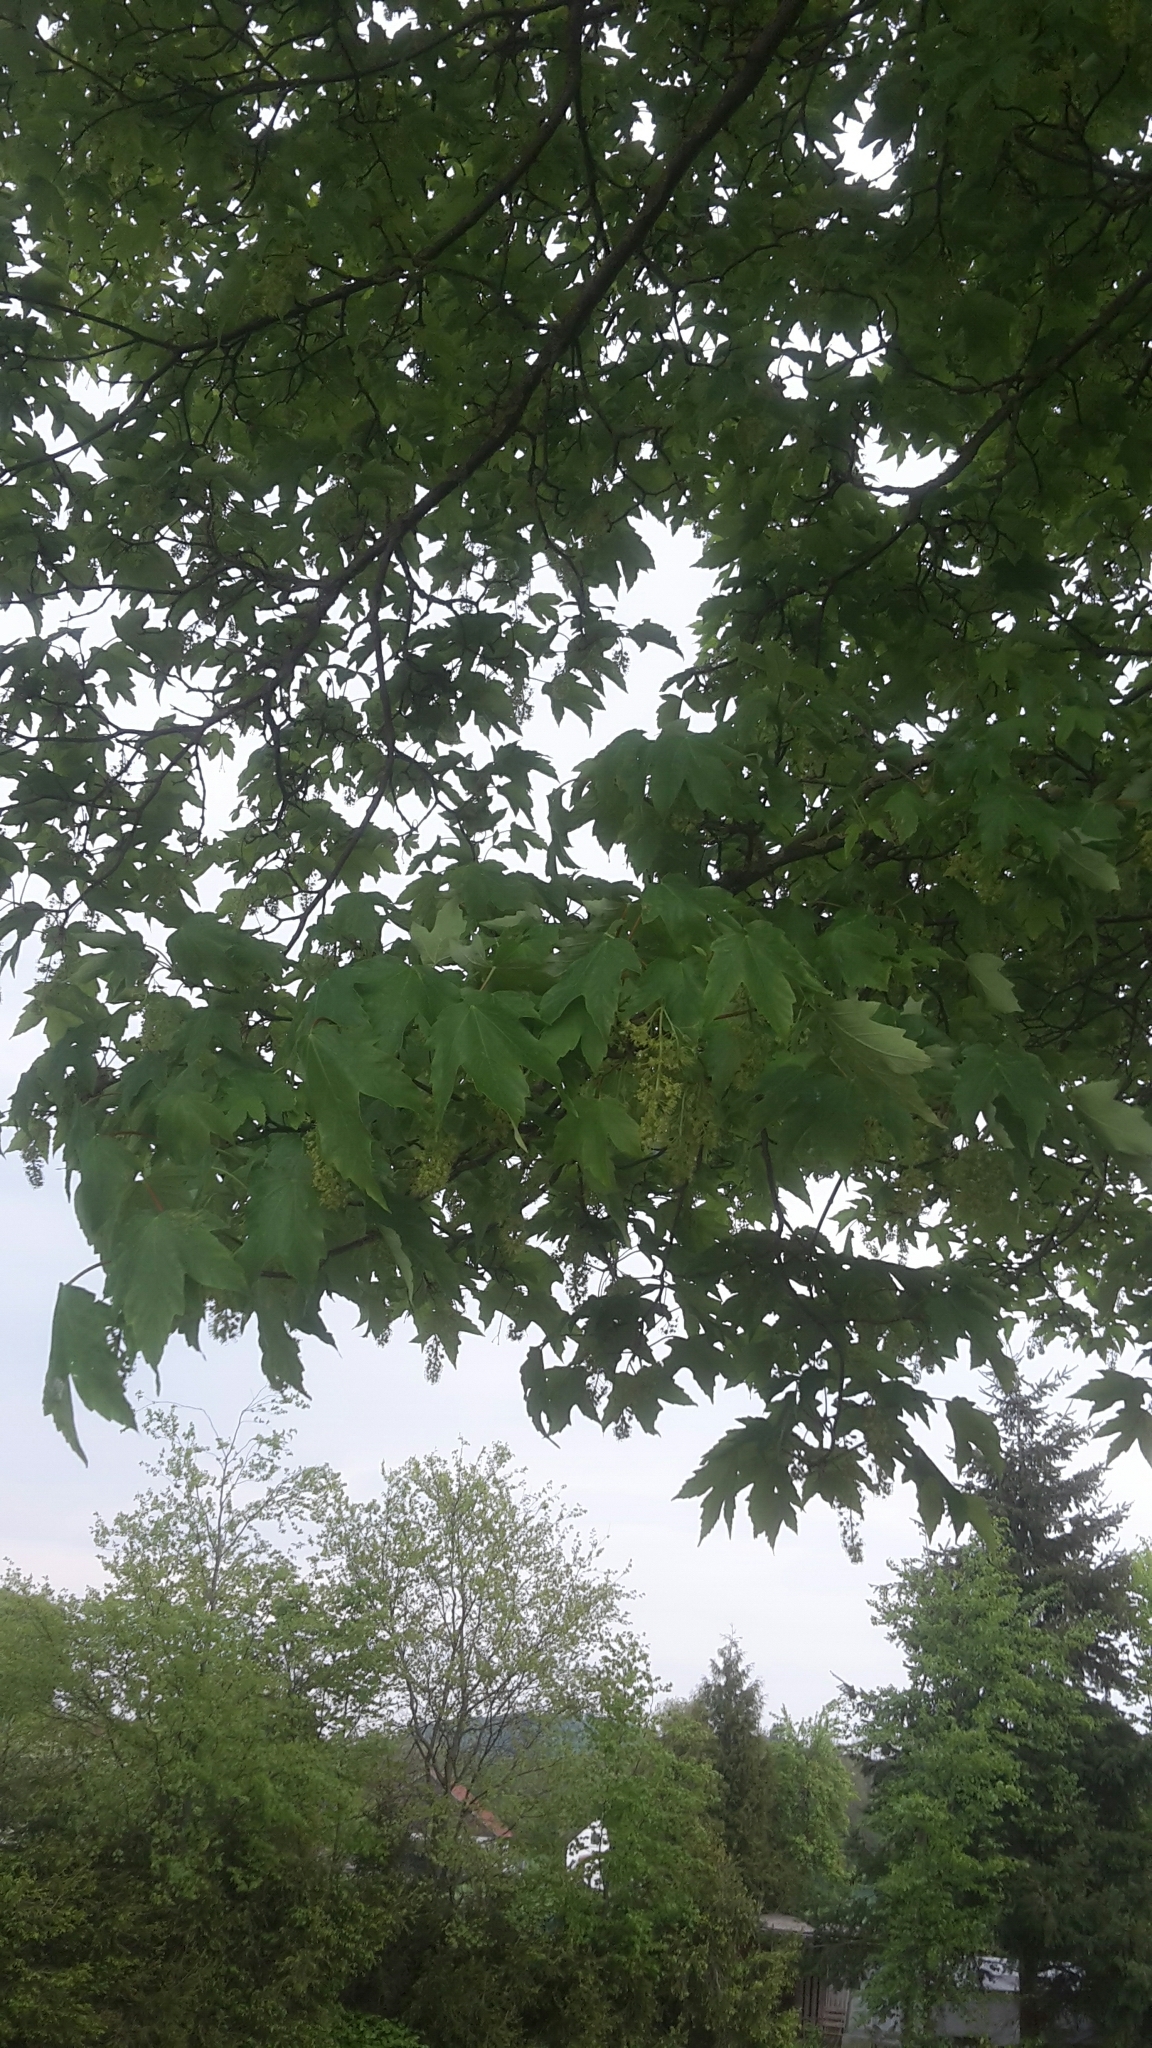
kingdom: Plantae
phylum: Tracheophyta
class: Magnoliopsida
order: Sapindales
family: Sapindaceae
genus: Acer
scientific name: Acer pseudoplatanus
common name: Sycamore
